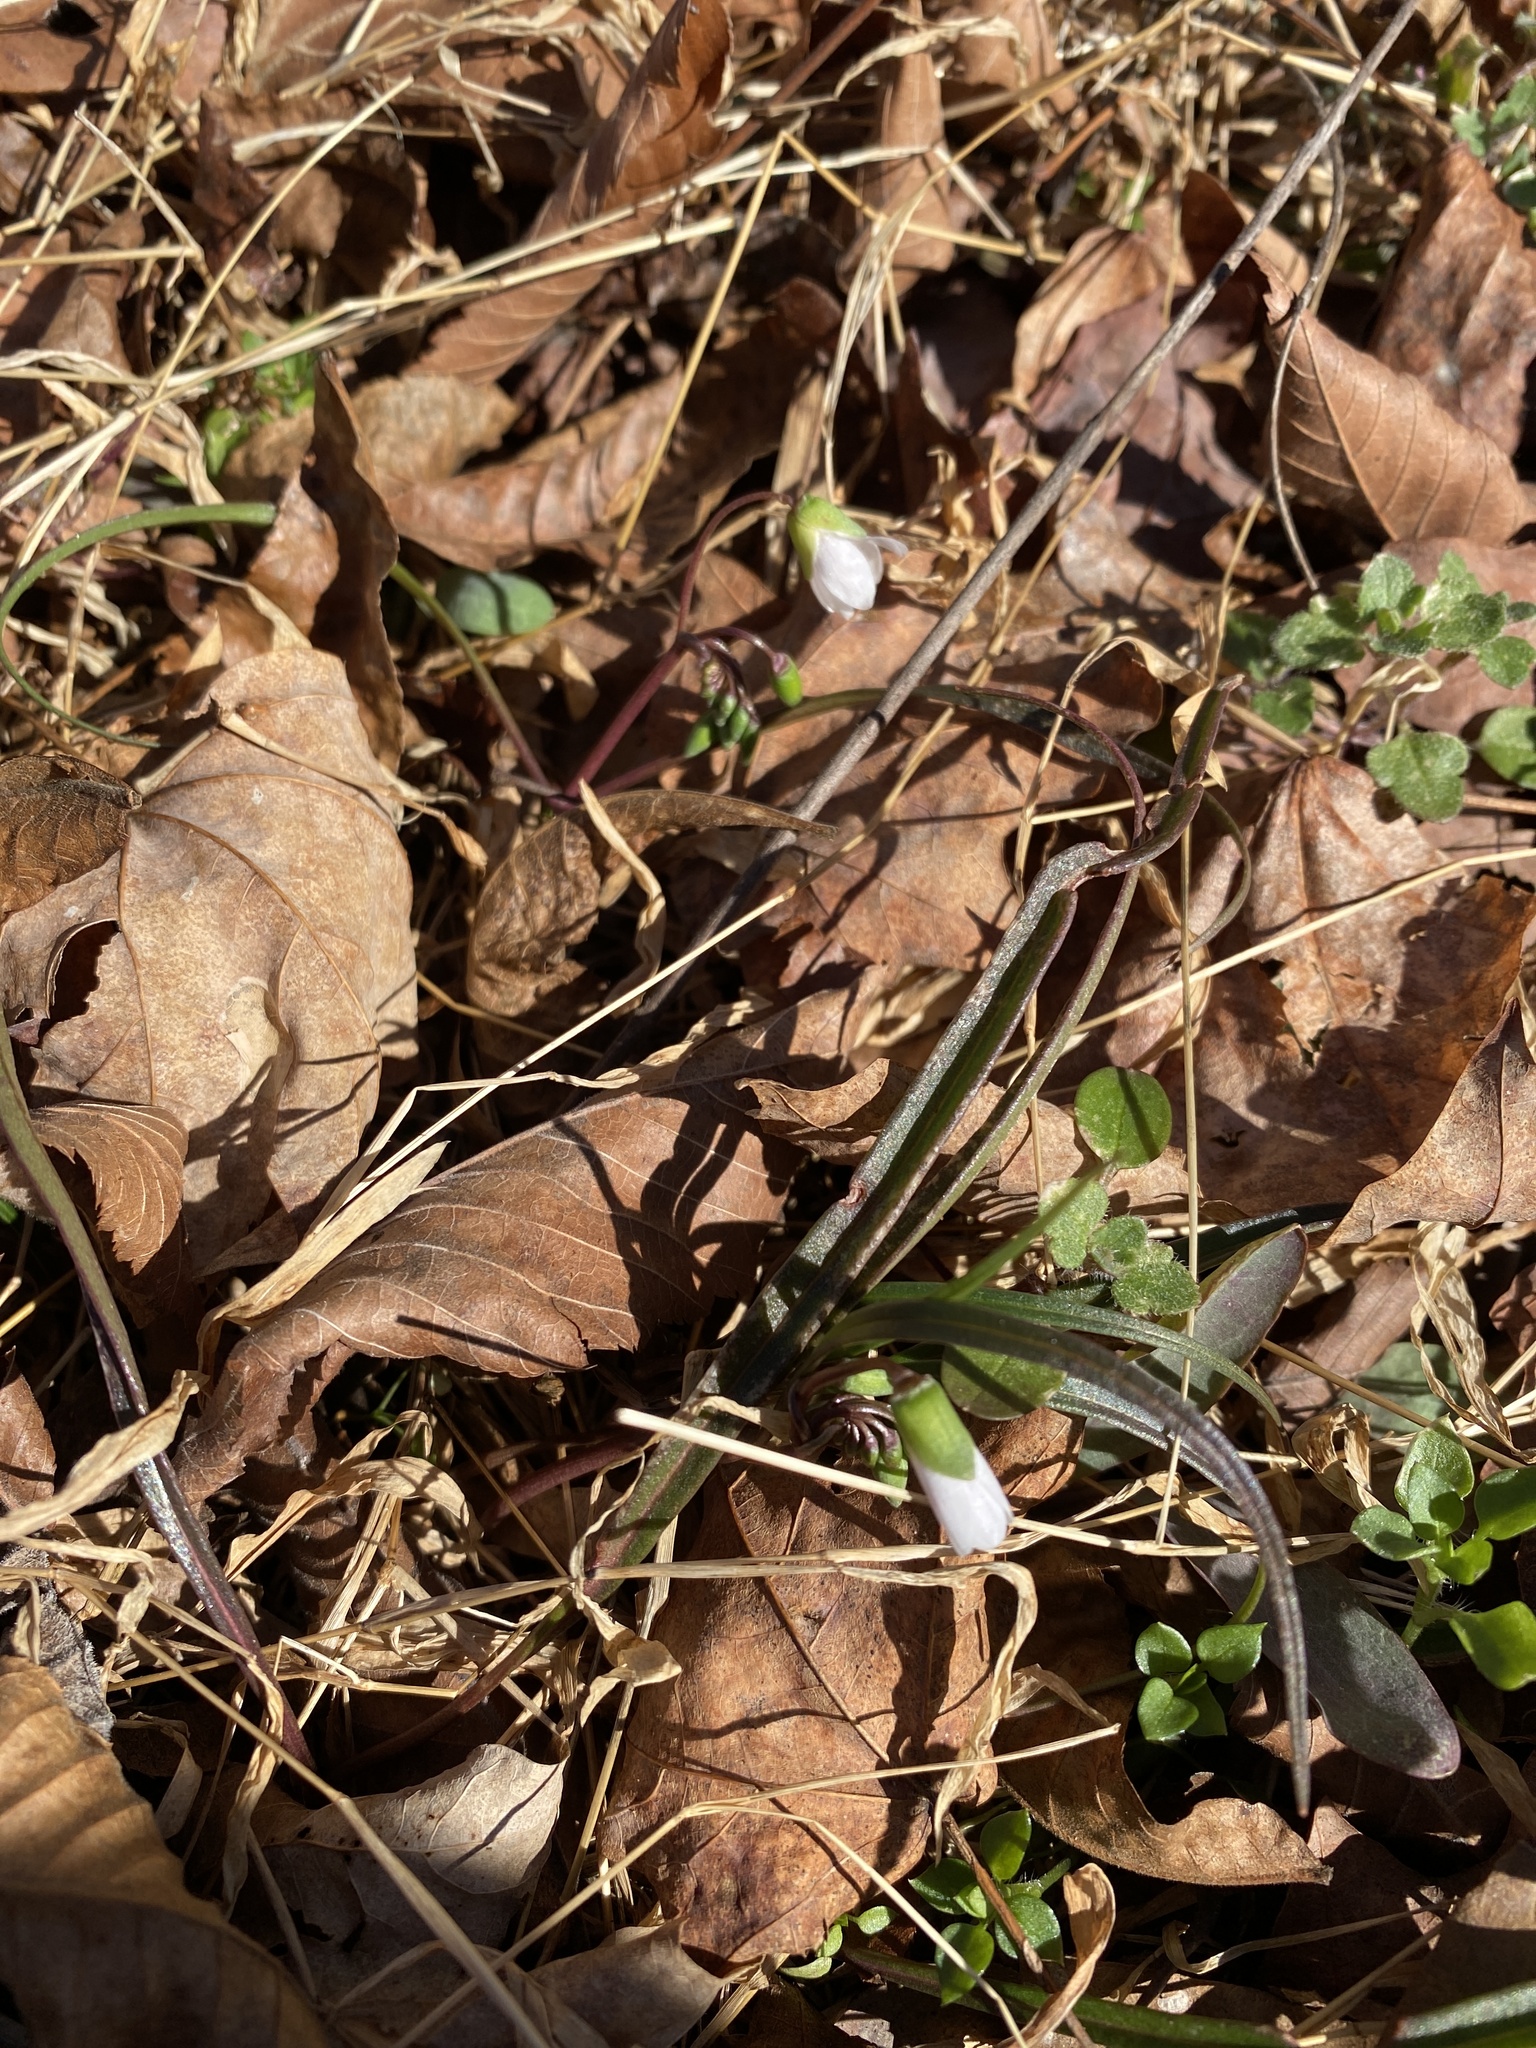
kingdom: Plantae
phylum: Tracheophyta
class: Magnoliopsida
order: Caryophyllales
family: Montiaceae
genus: Claytonia
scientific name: Claytonia virginica
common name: Virginia springbeauty
